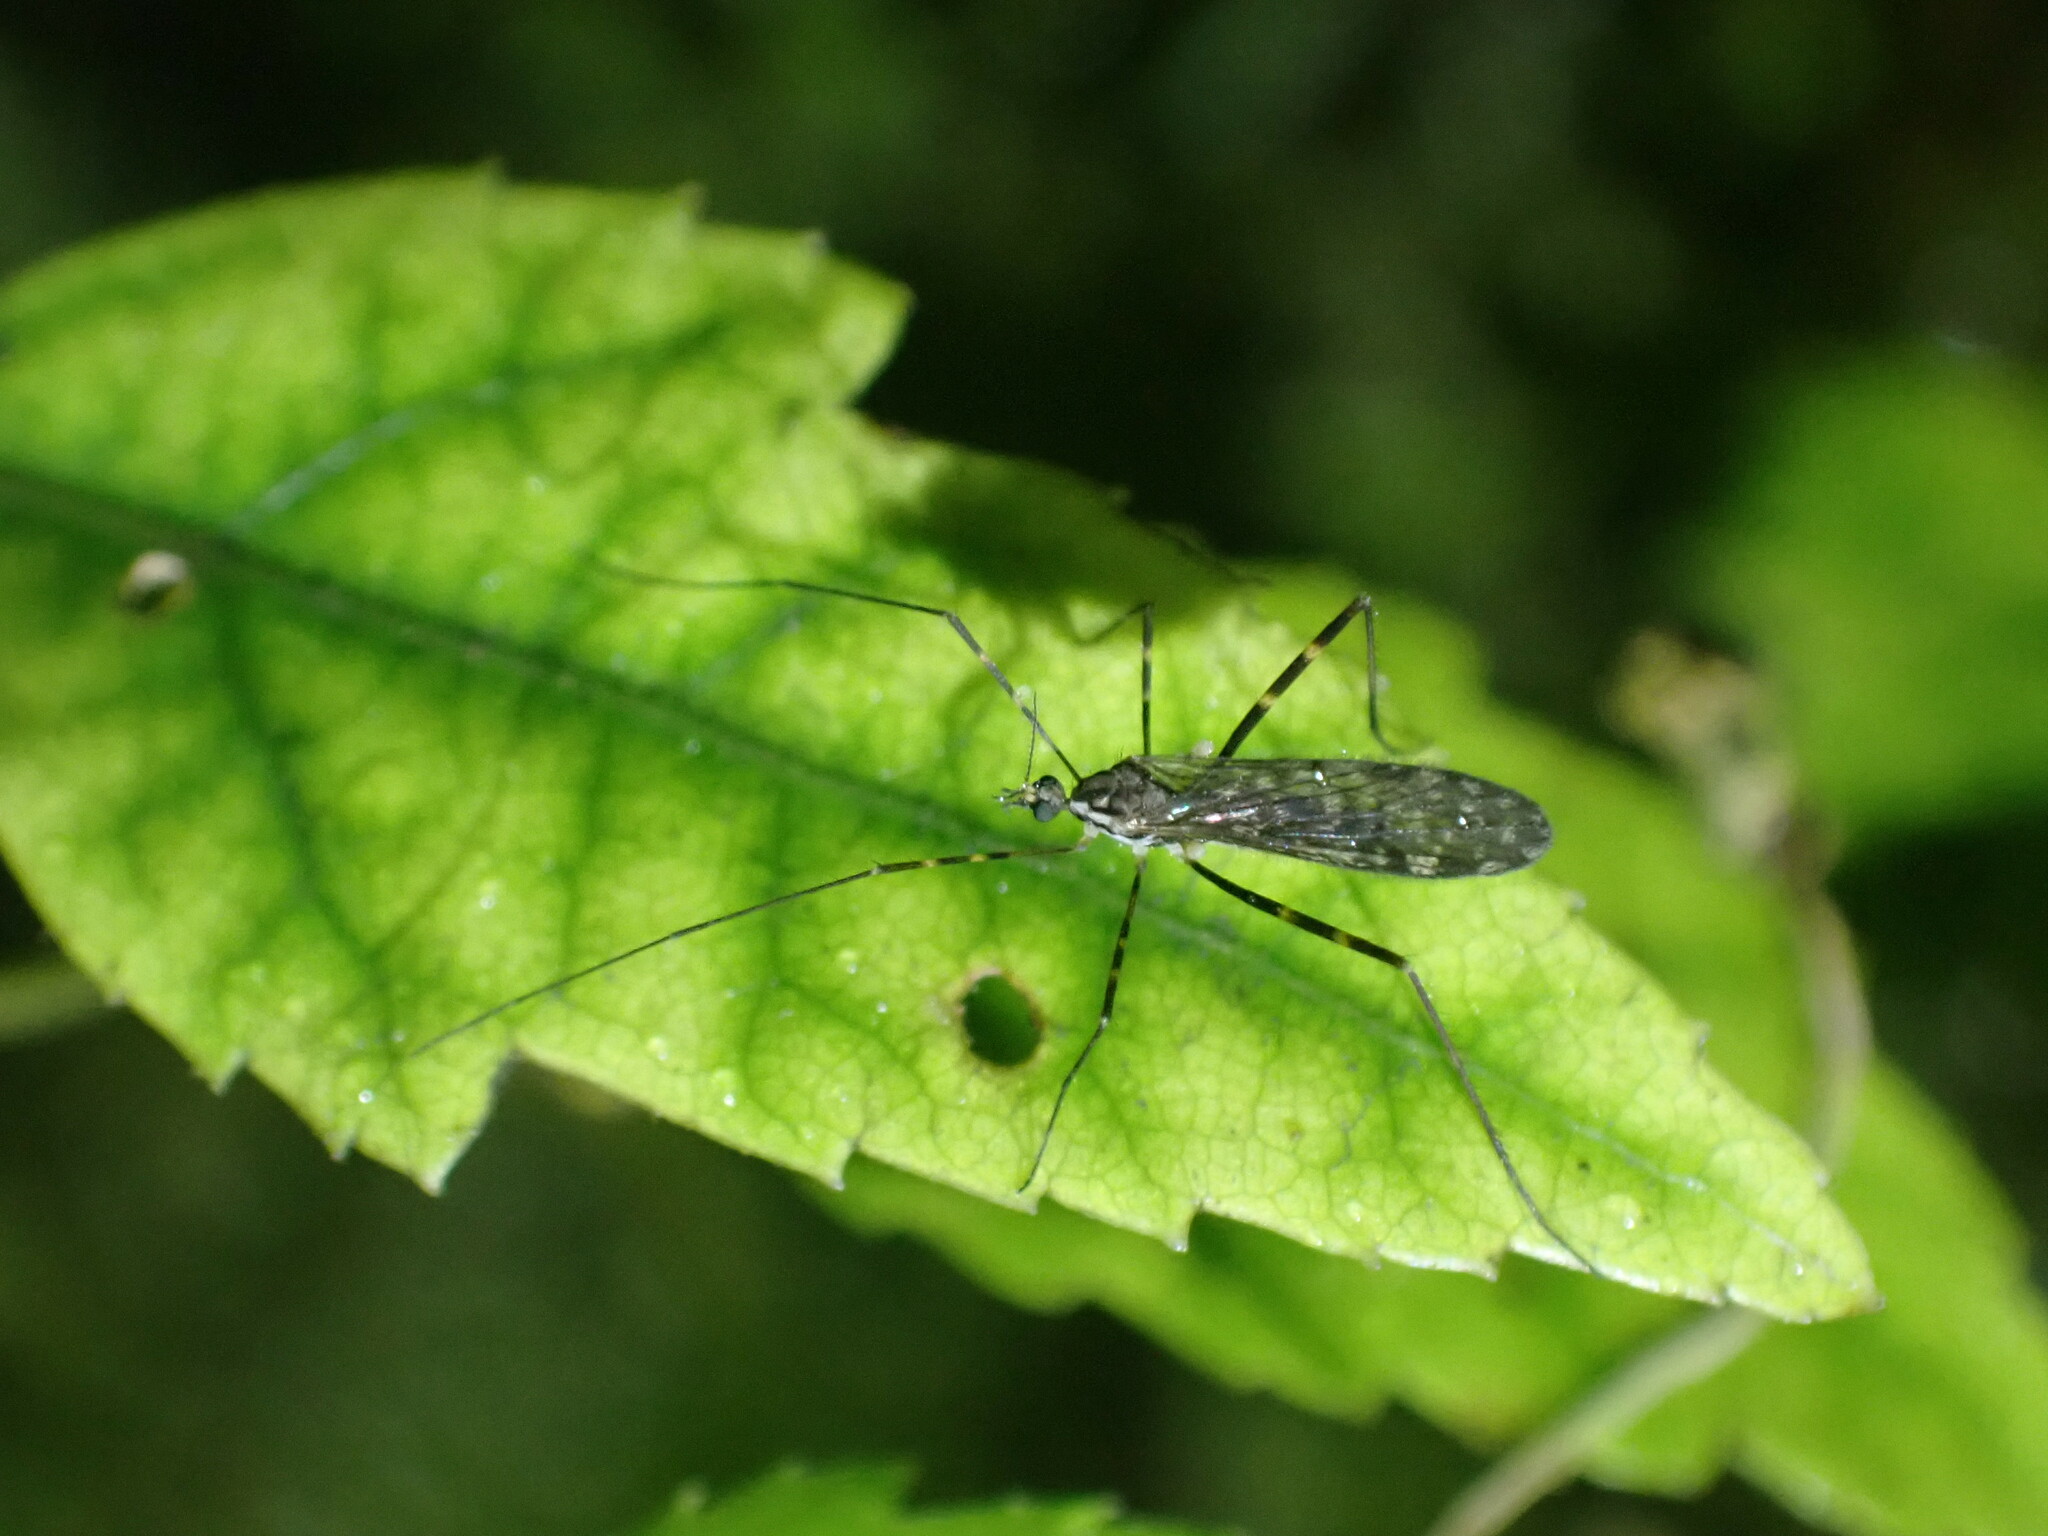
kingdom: Animalia
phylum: Arthropoda
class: Insecta
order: Diptera
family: Limoniidae
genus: Amphineurus
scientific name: Amphineurus bicinctus
